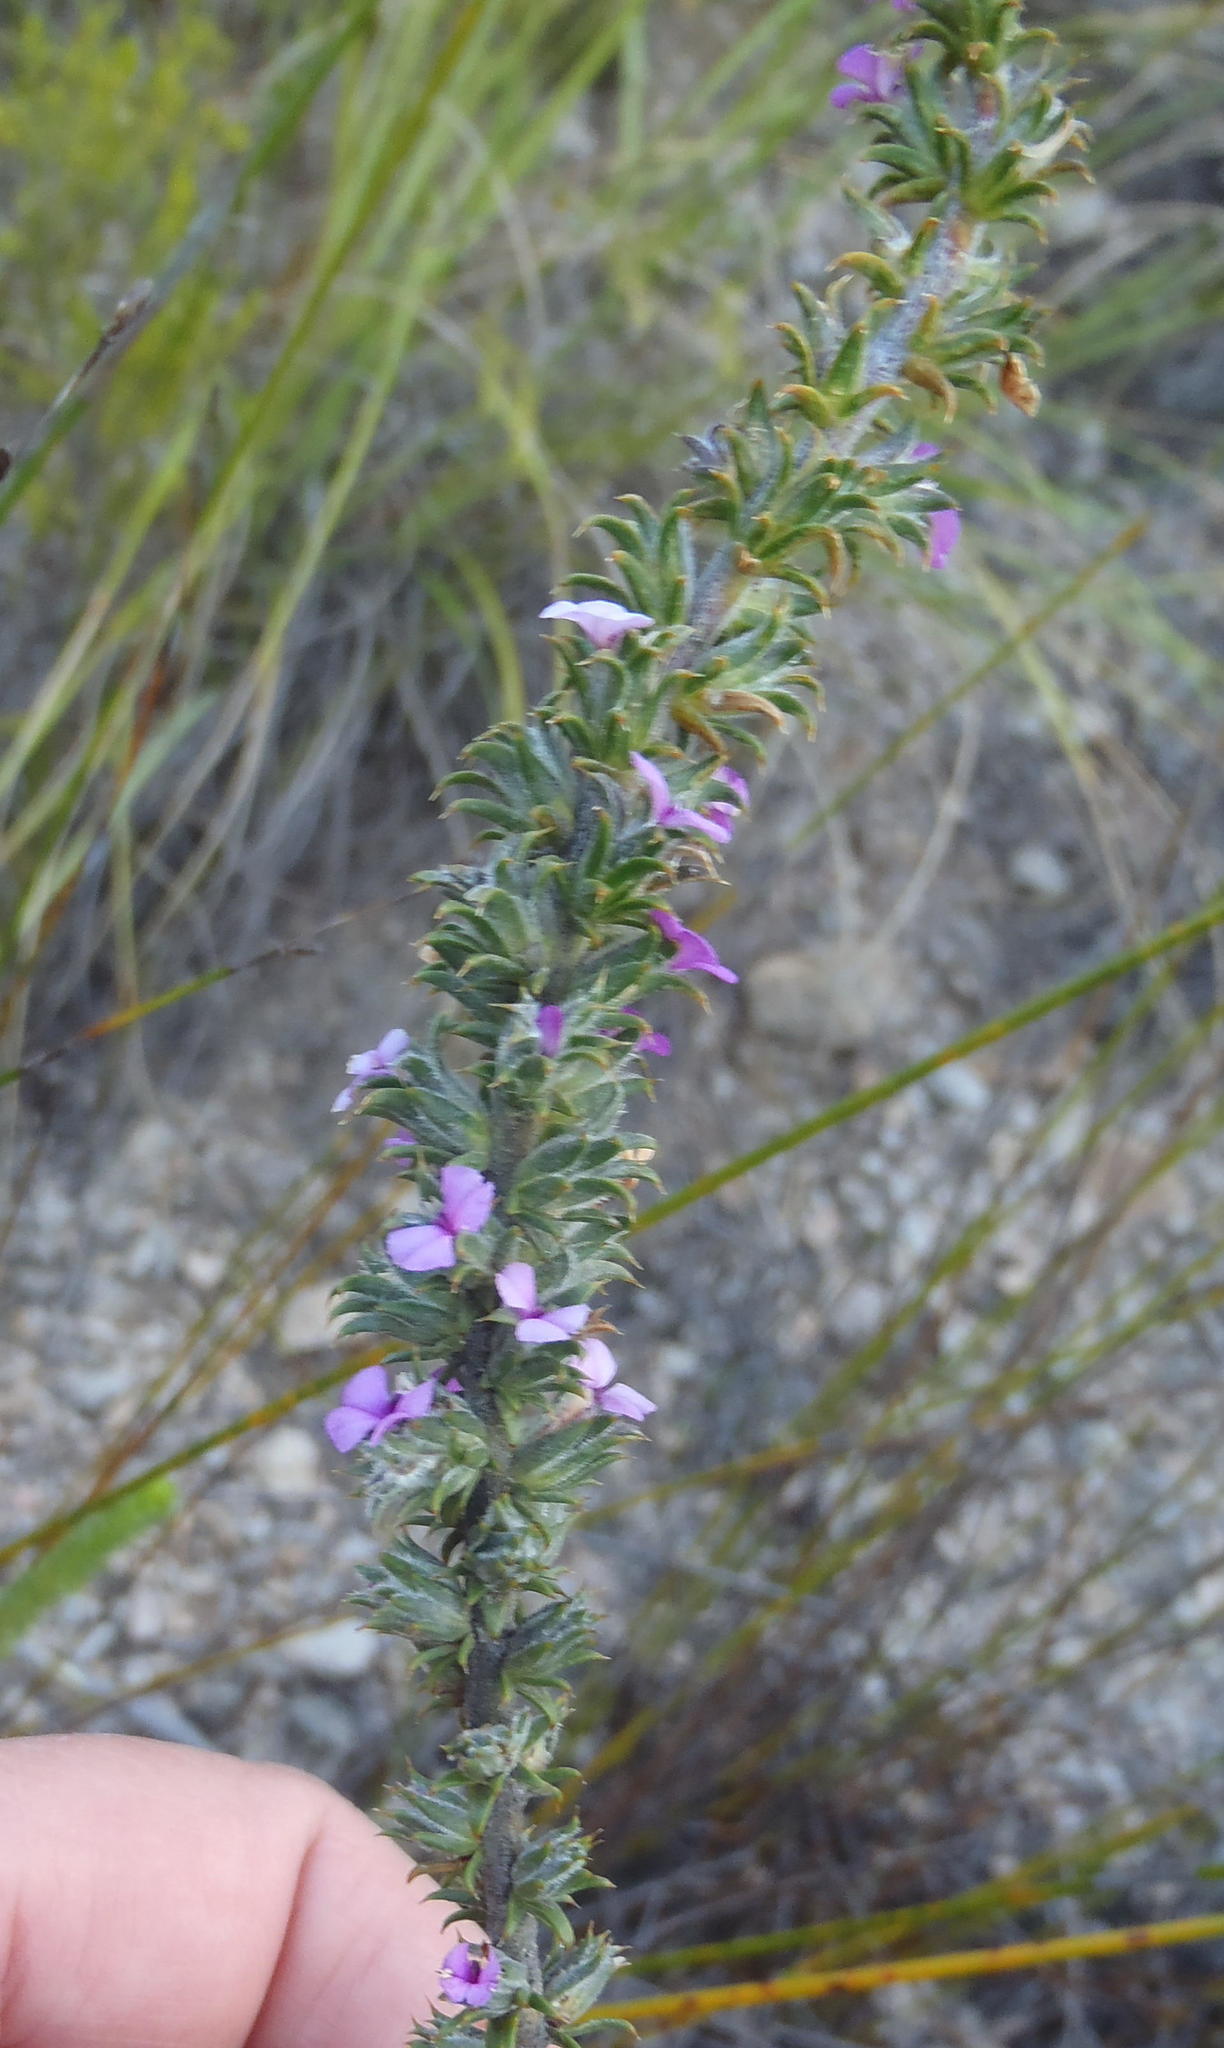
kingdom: Plantae
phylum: Tracheophyta
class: Magnoliopsida
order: Fabales
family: Polygalaceae
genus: Muraltia
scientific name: Muraltia squarrosa
